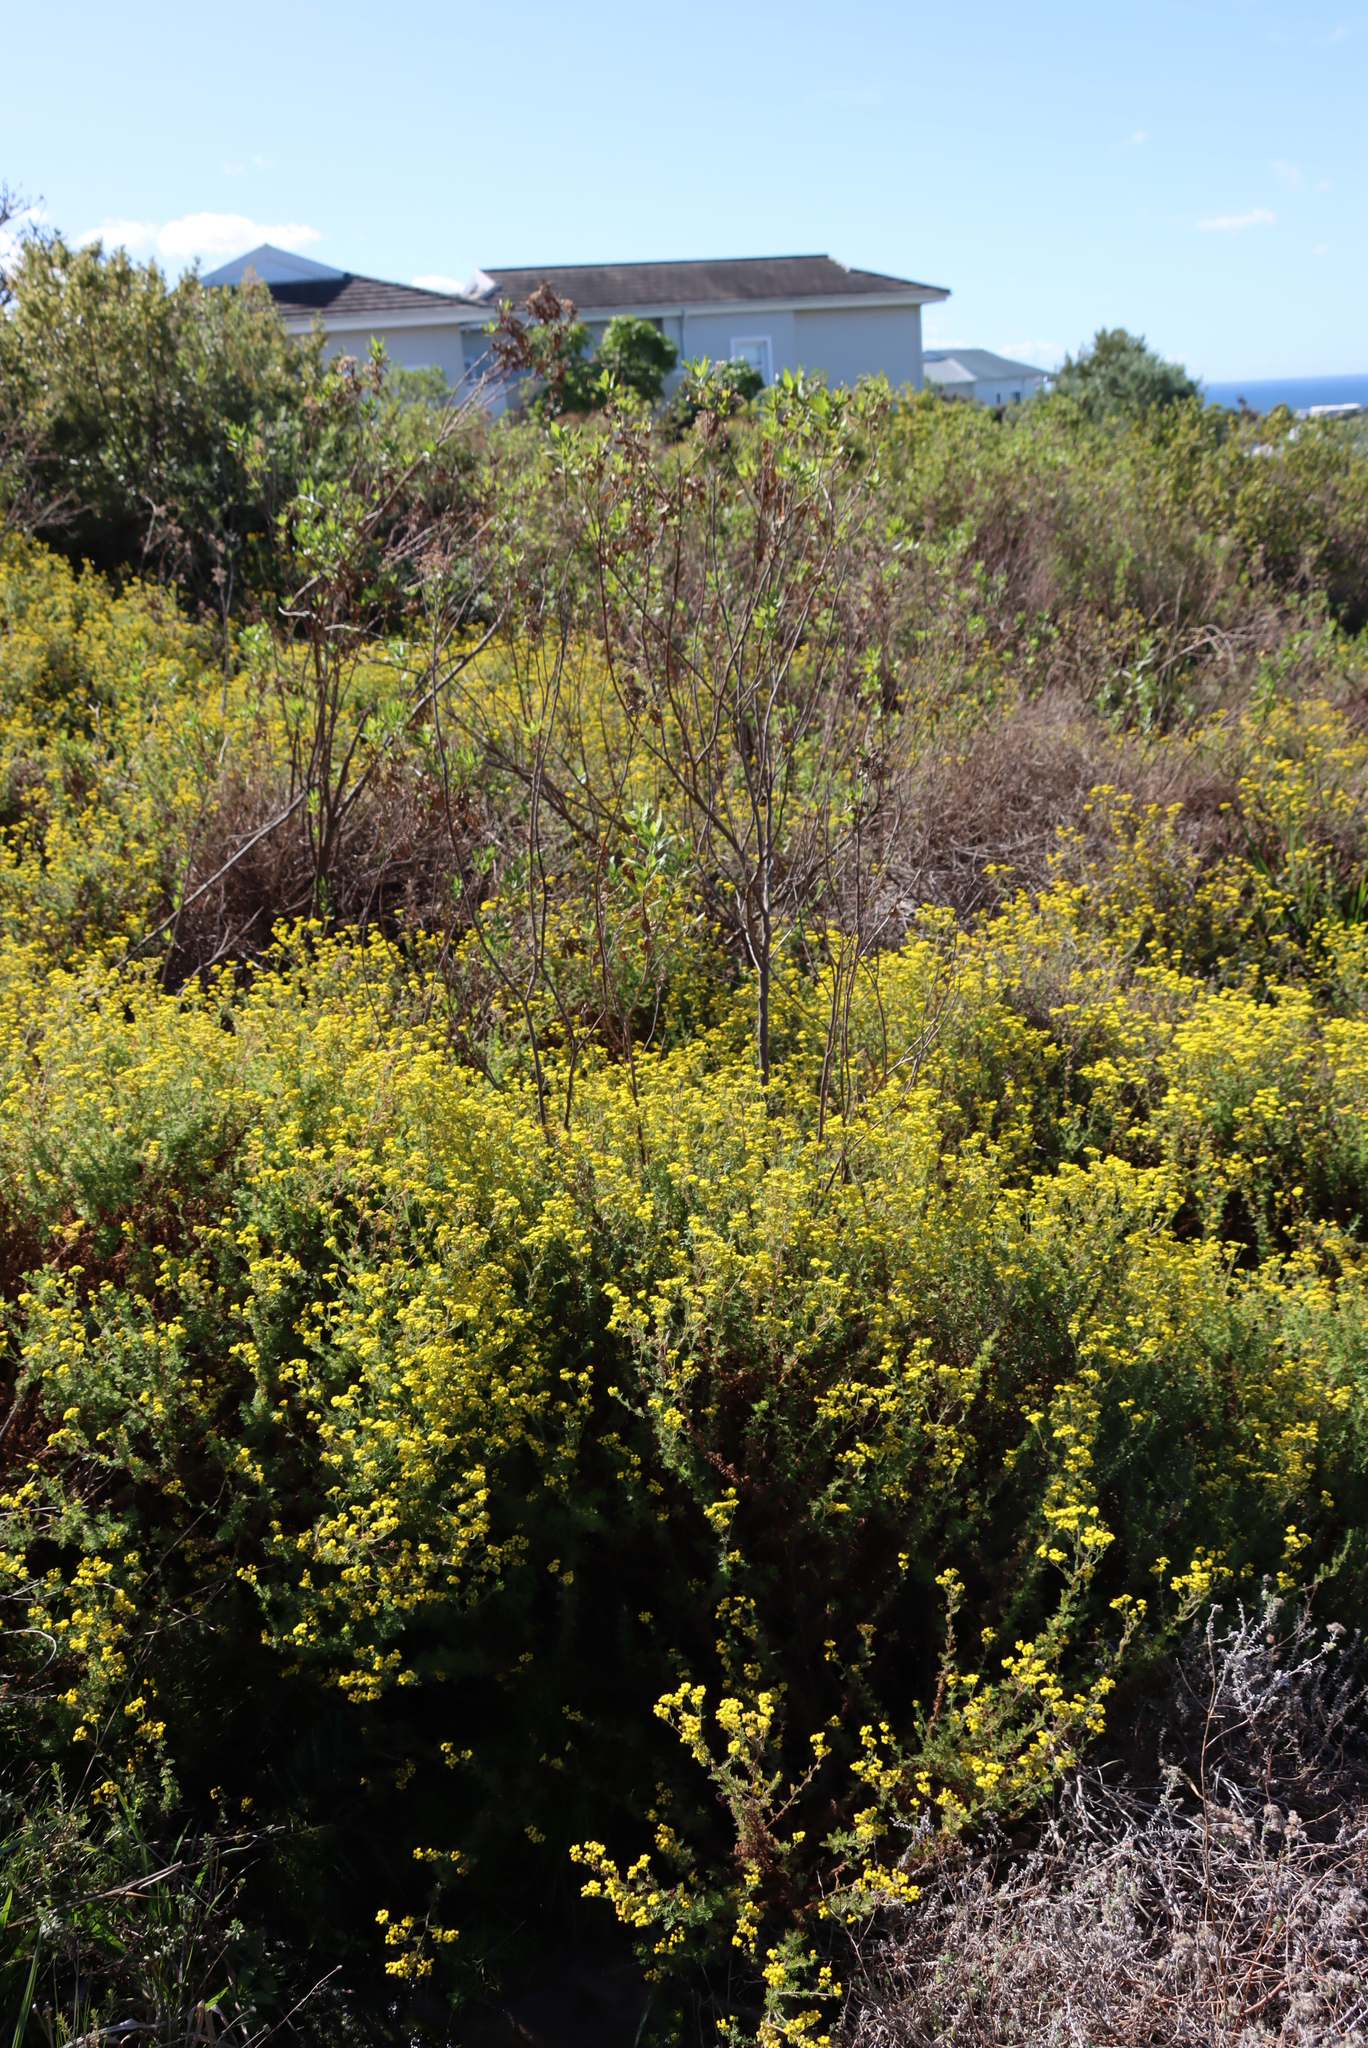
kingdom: Plantae
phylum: Tracheophyta
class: Magnoliopsida
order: Asterales
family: Asteraceae
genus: Hippia
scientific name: Hippia frutescens
